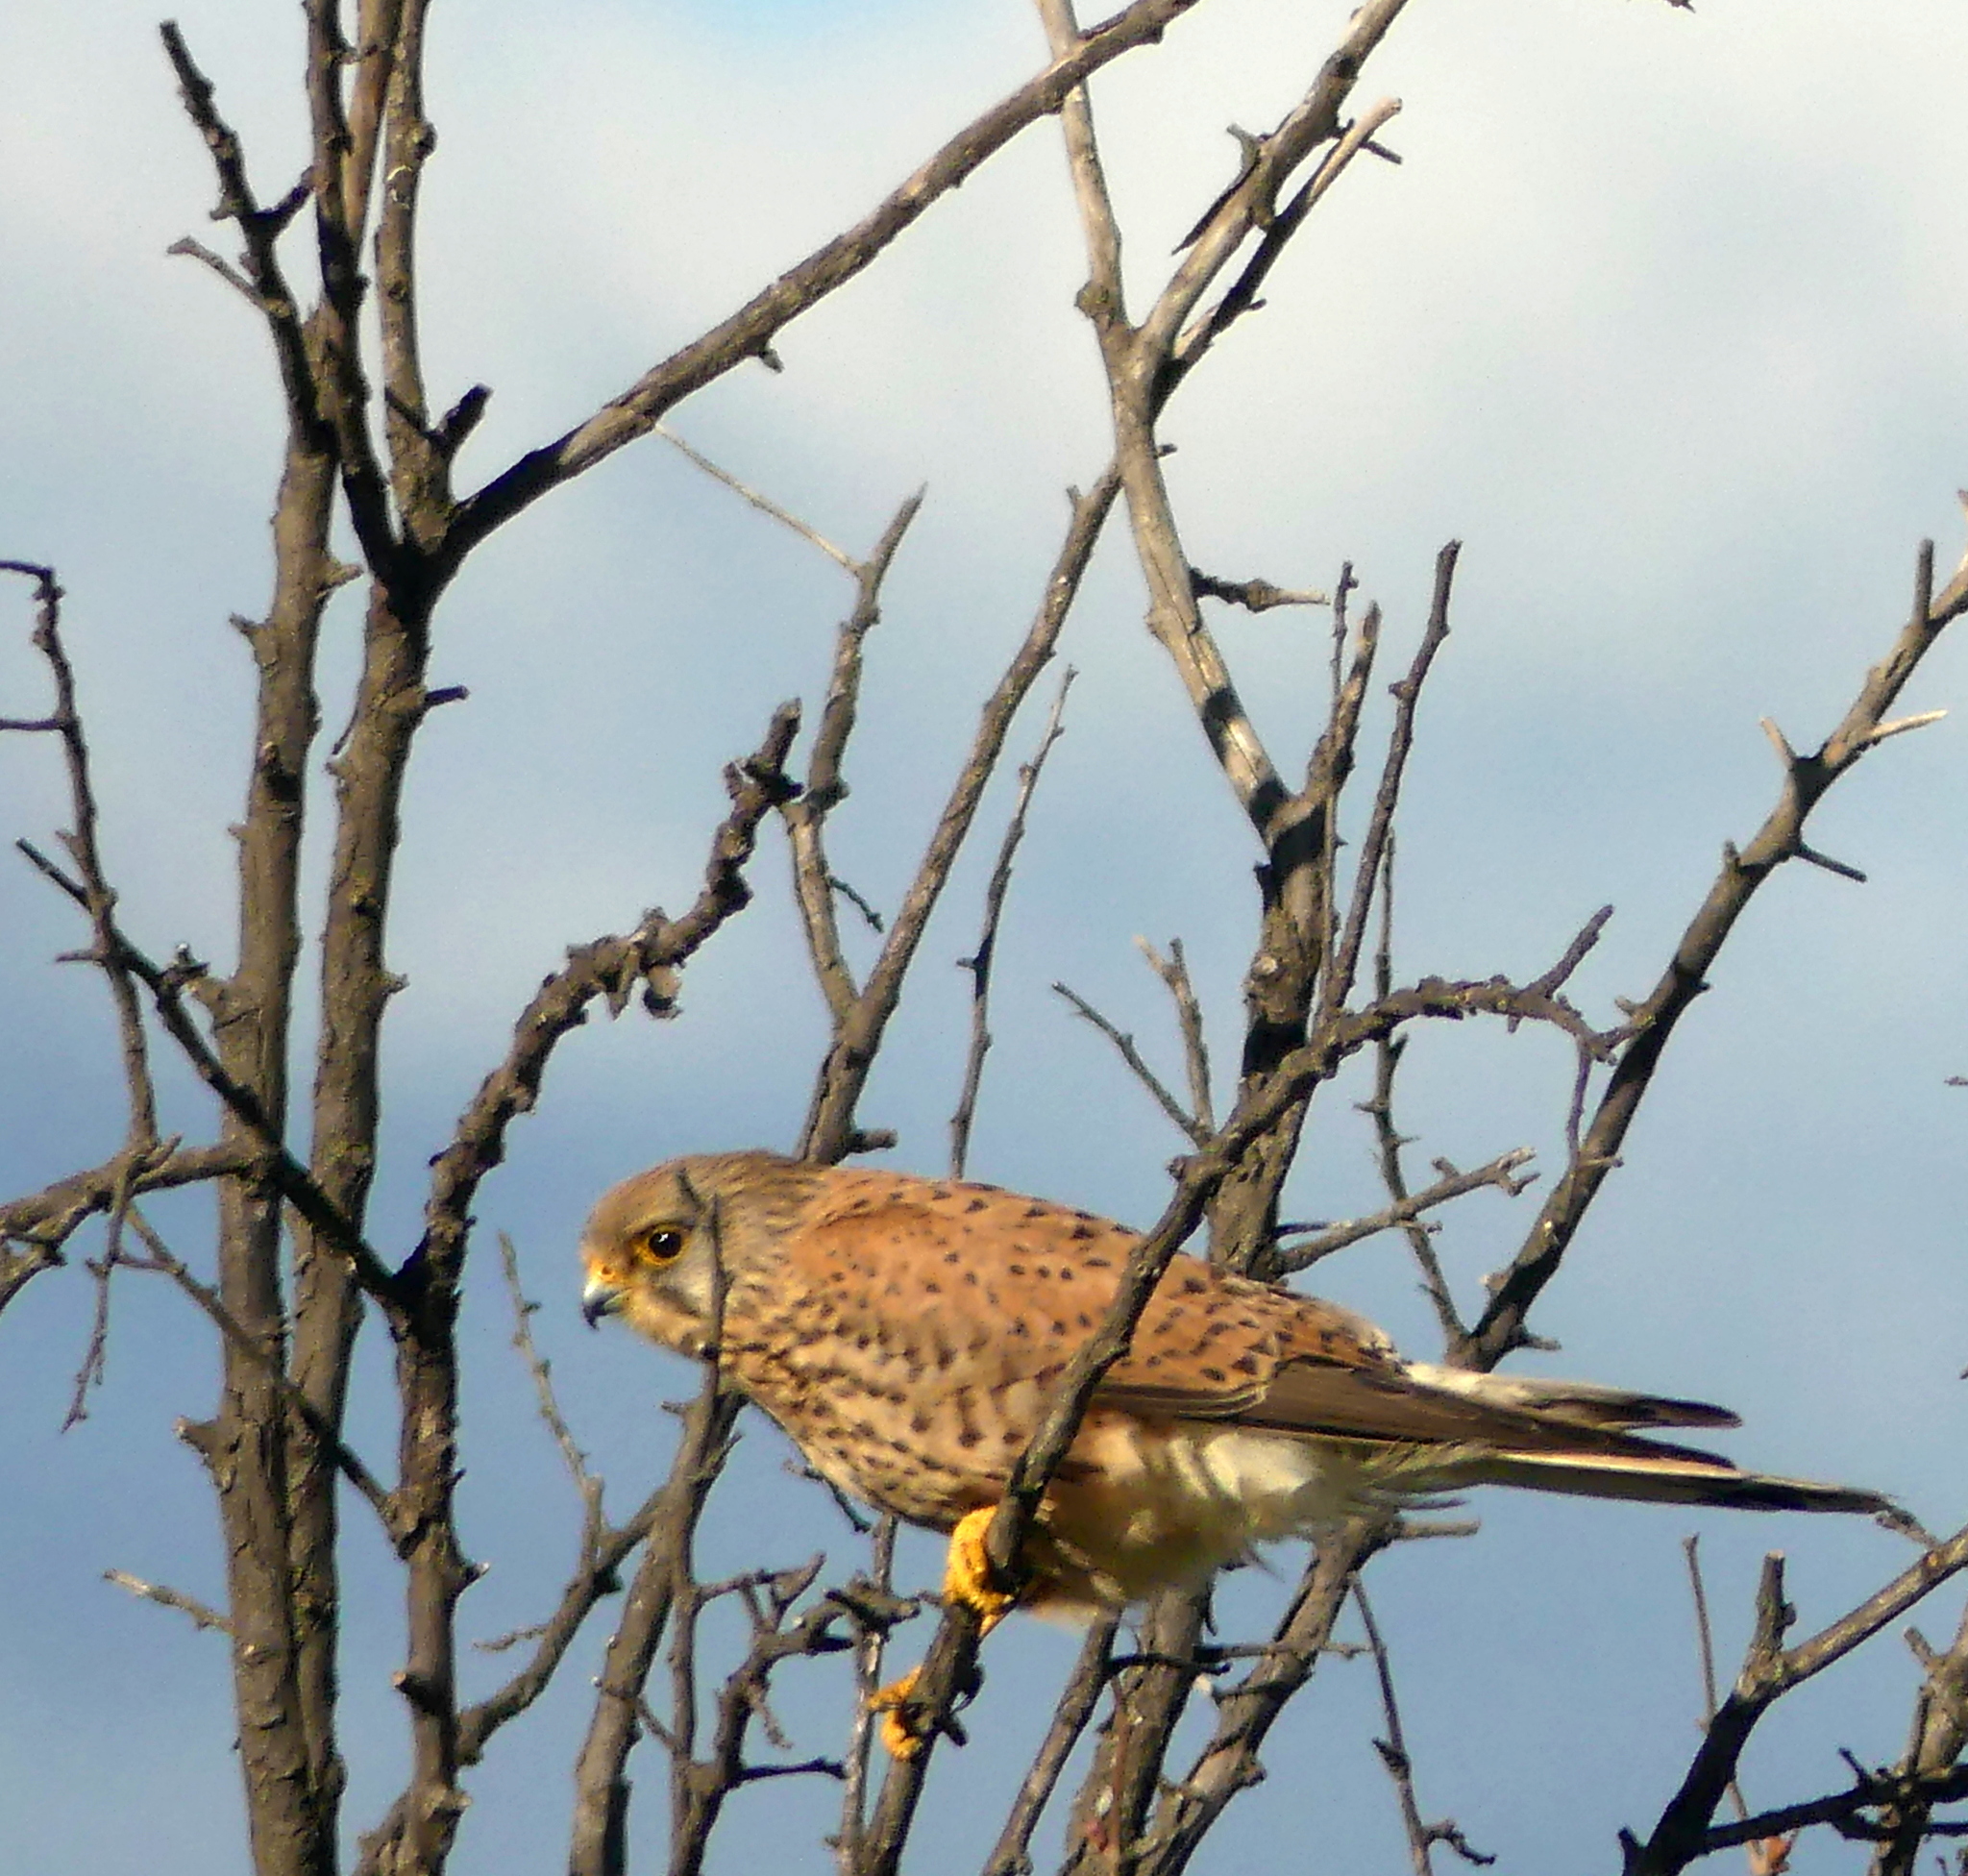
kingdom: Animalia
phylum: Chordata
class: Aves
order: Falconiformes
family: Falconidae
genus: Falco
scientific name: Falco tinnunculus
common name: Common kestrel
